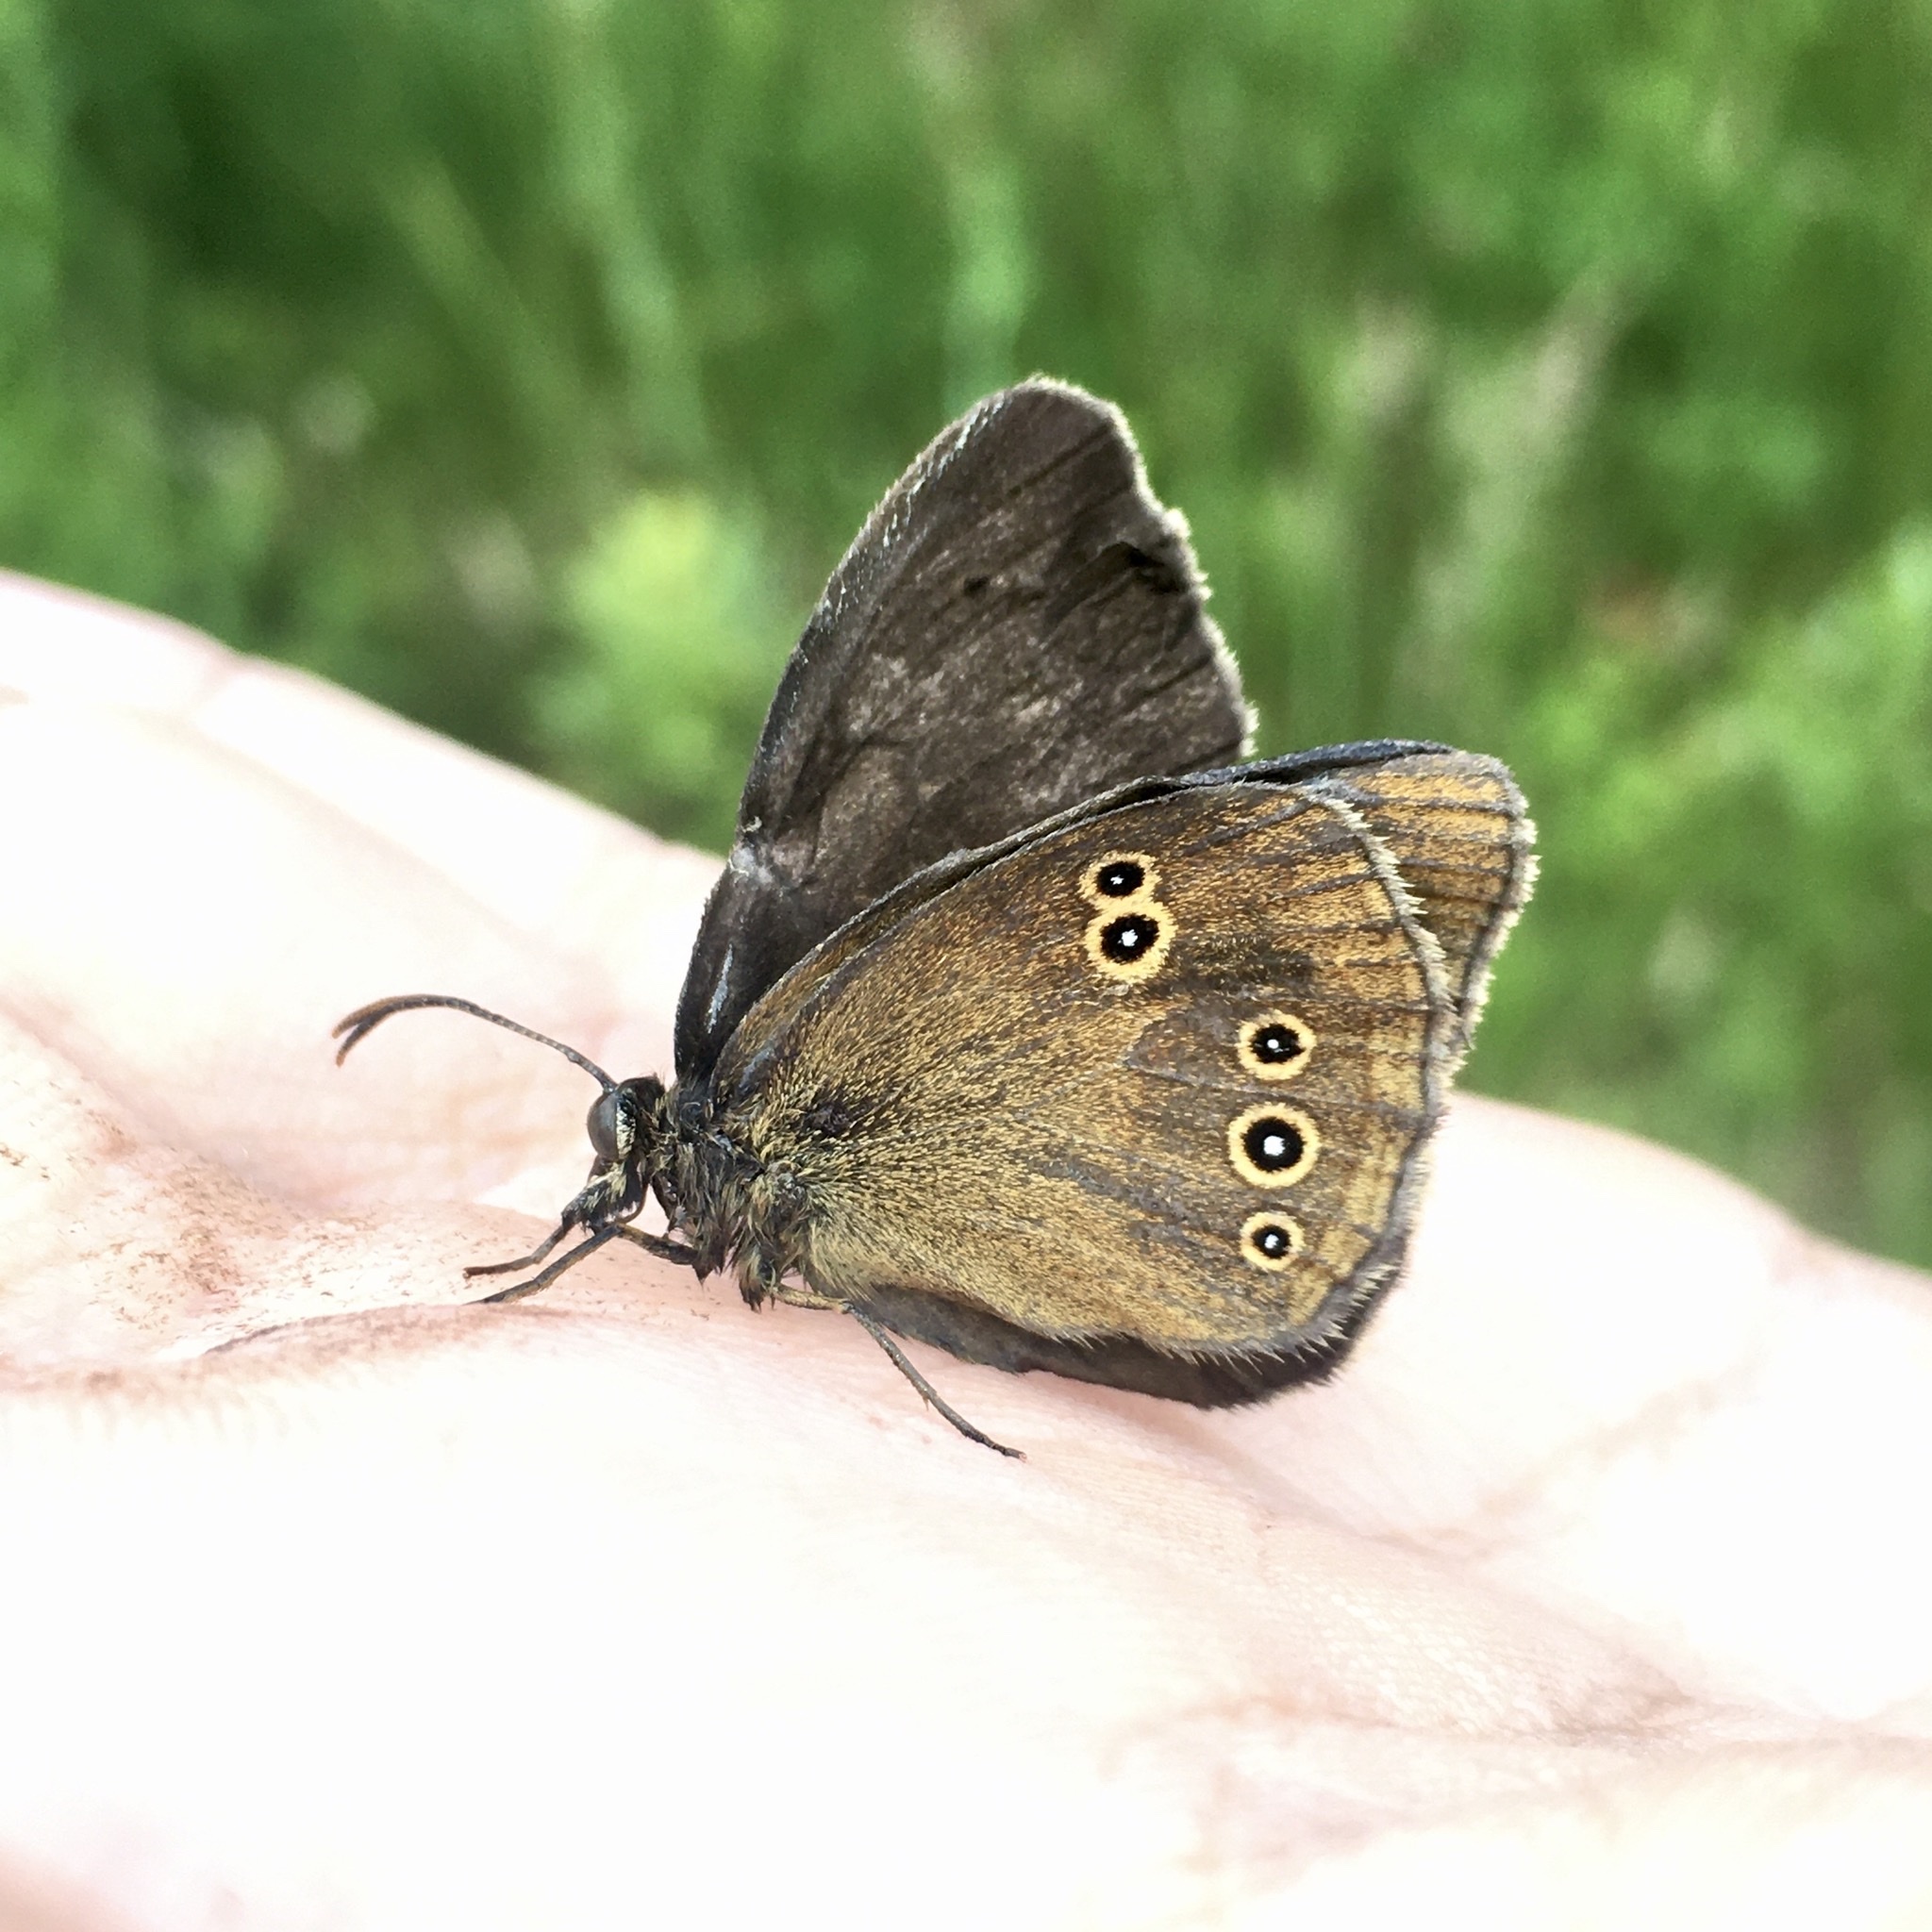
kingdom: Animalia
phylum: Arthropoda
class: Insecta
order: Lepidoptera
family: Nymphalidae
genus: Aphantopus
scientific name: Aphantopus hyperantus
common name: Ringlet
